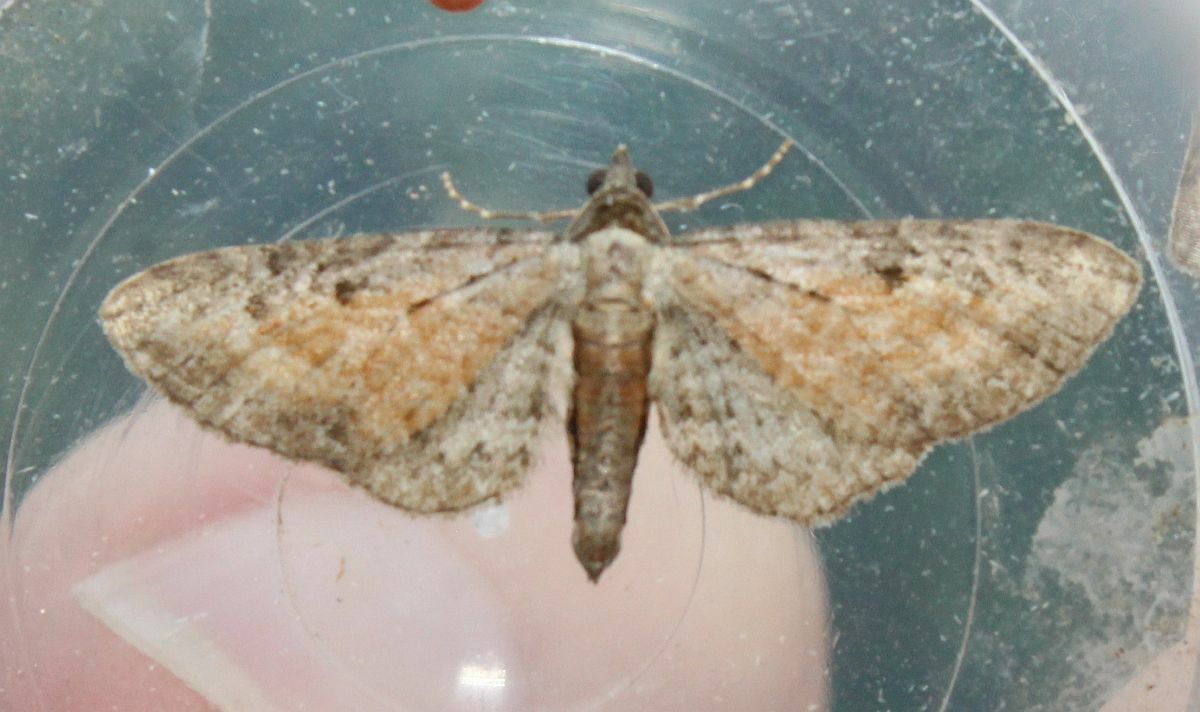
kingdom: Animalia
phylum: Arthropoda
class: Insecta
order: Lepidoptera
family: Geometridae
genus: Eupithecia
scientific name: Eupithecia icterata
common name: Tawny speckled pug
